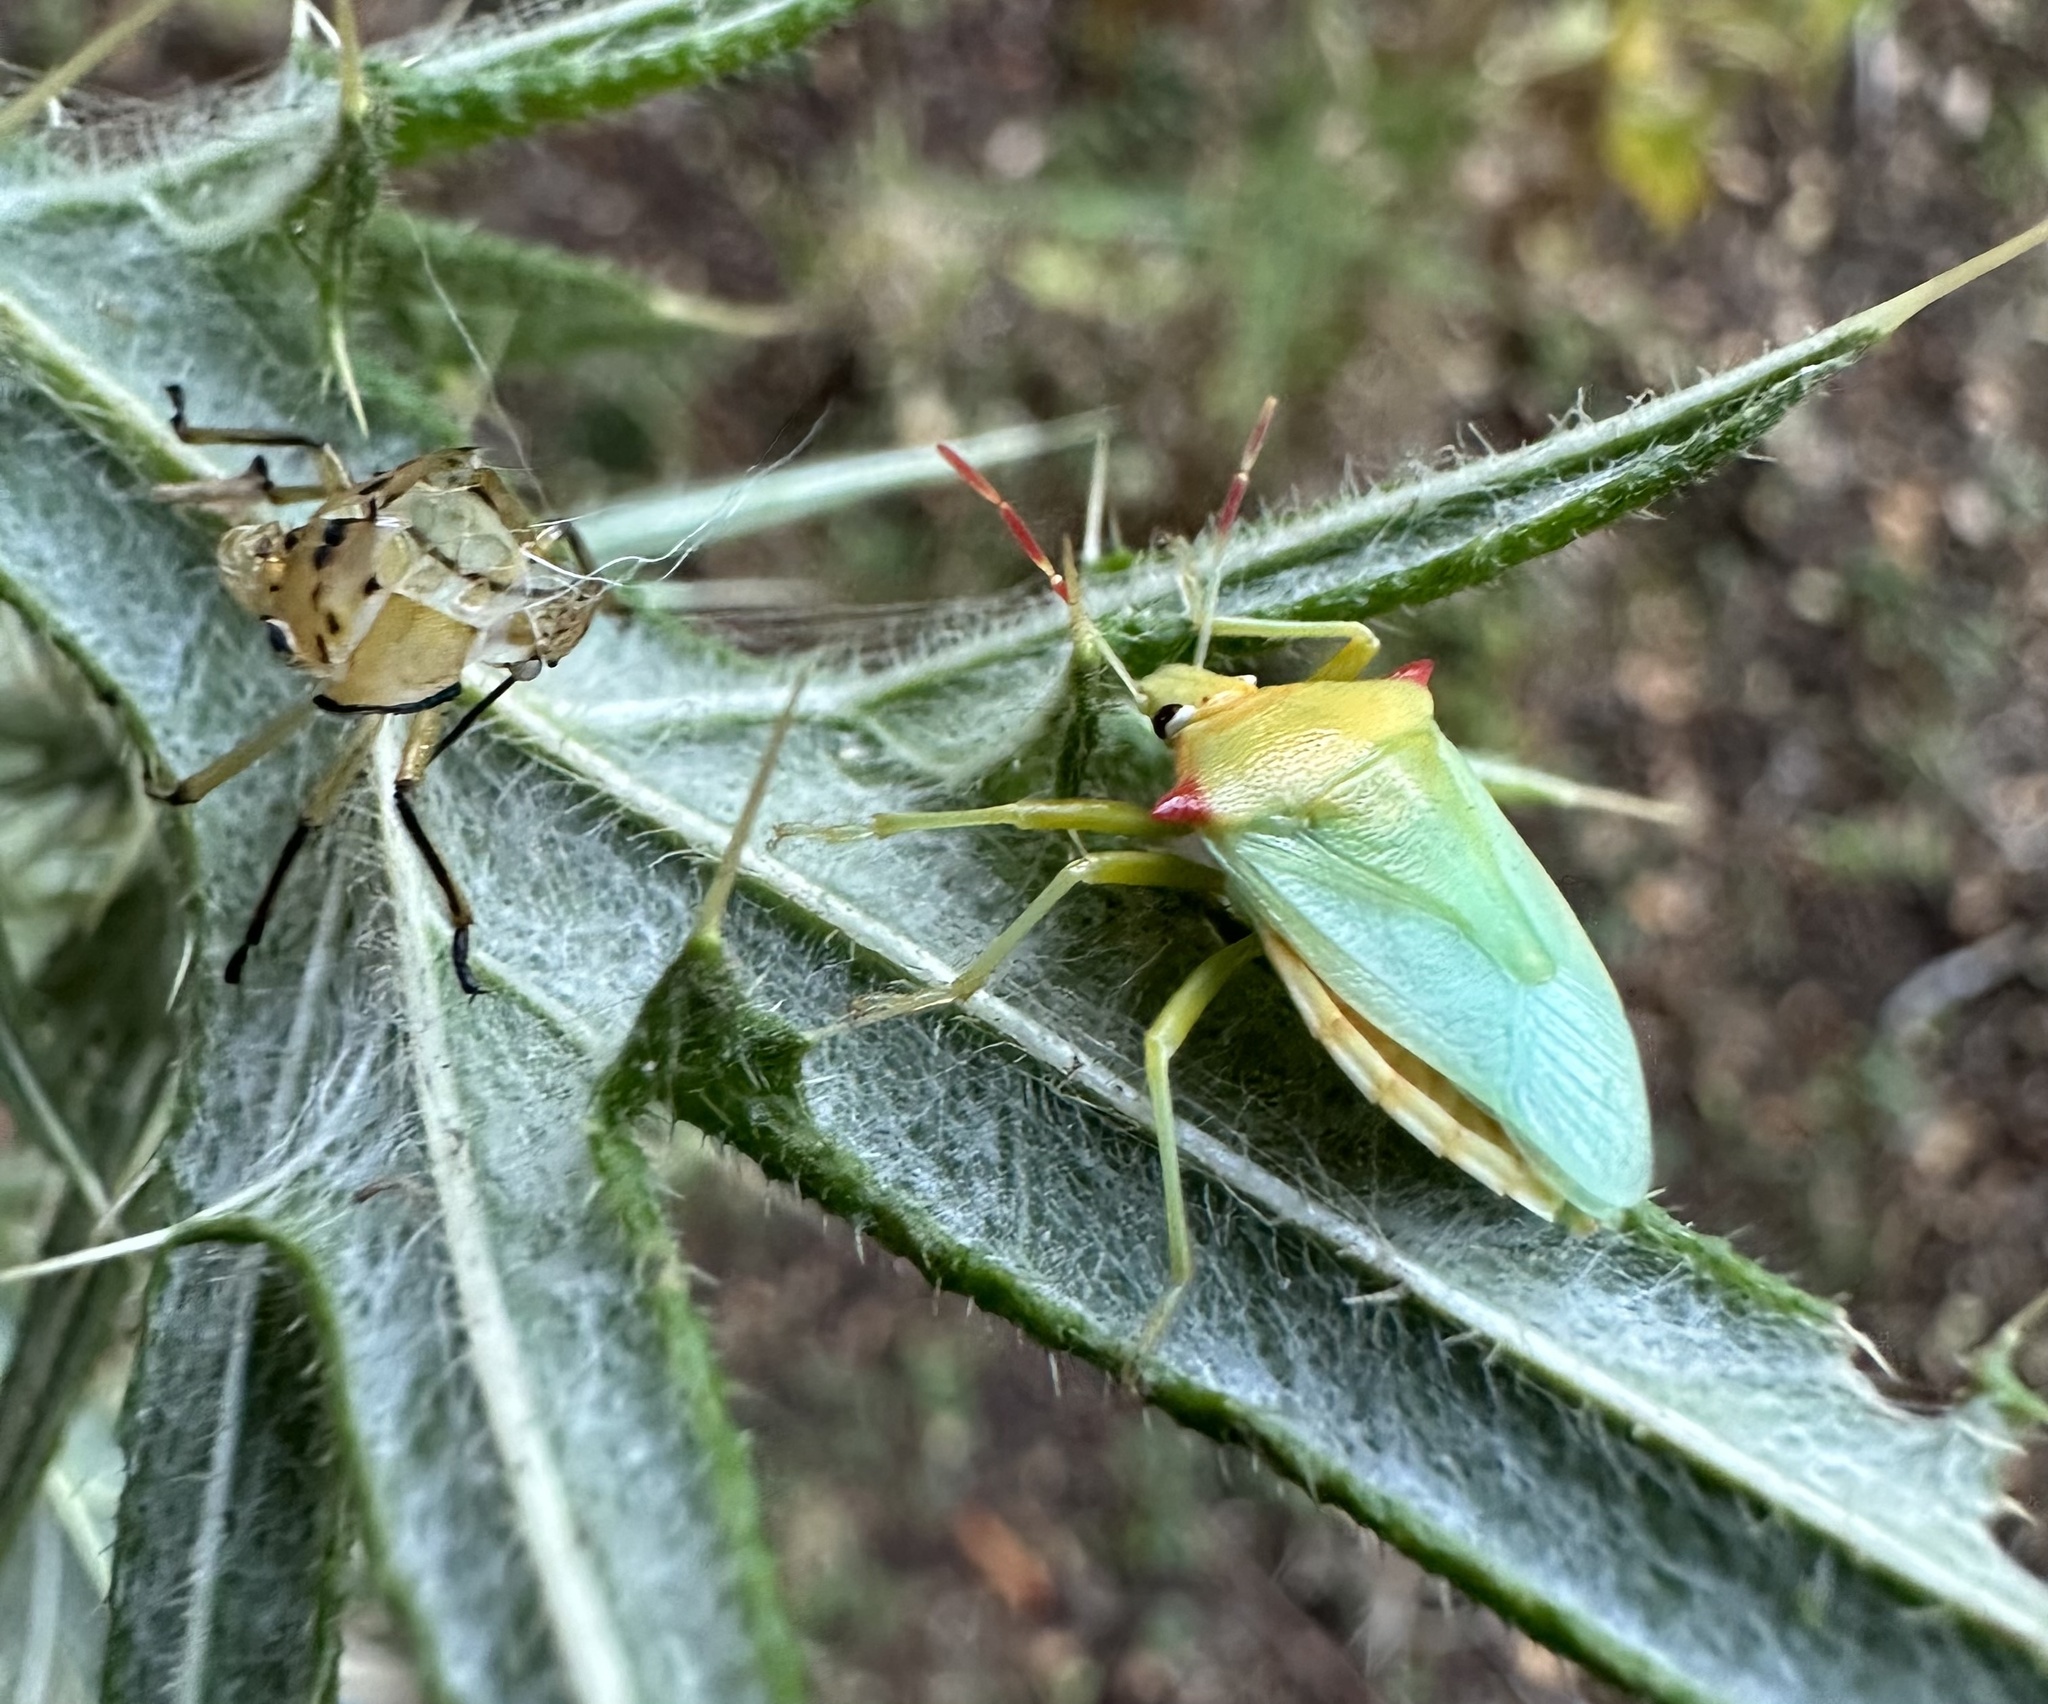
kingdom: Animalia
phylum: Arthropoda
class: Insecta
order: Hemiptera
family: Pentatomidae
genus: Brontocoris
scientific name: Brontocoris
